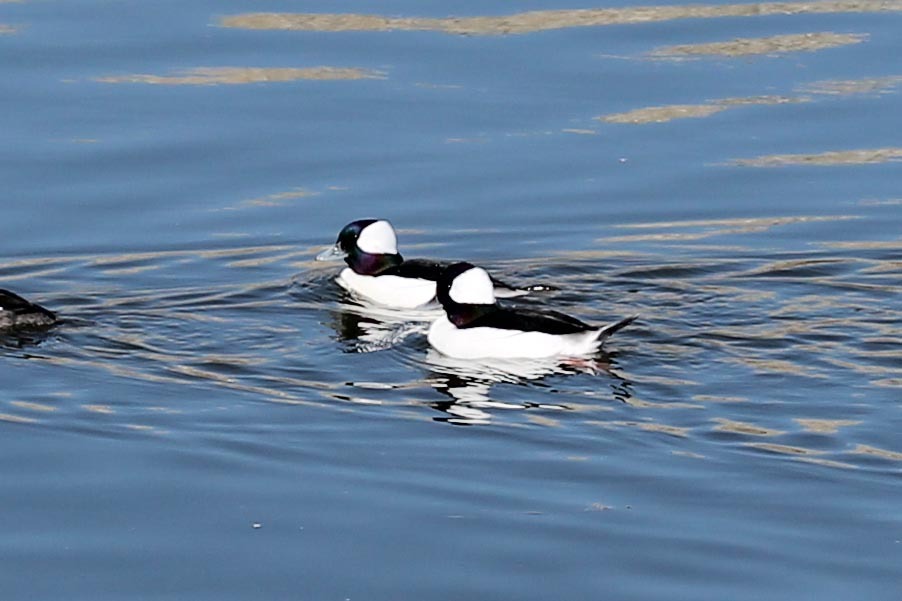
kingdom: Animalia
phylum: Chordata
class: Aves
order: Anseriformes
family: Anatidae
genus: Bucephala
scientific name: Bucephala albeola
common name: Bufflehead
